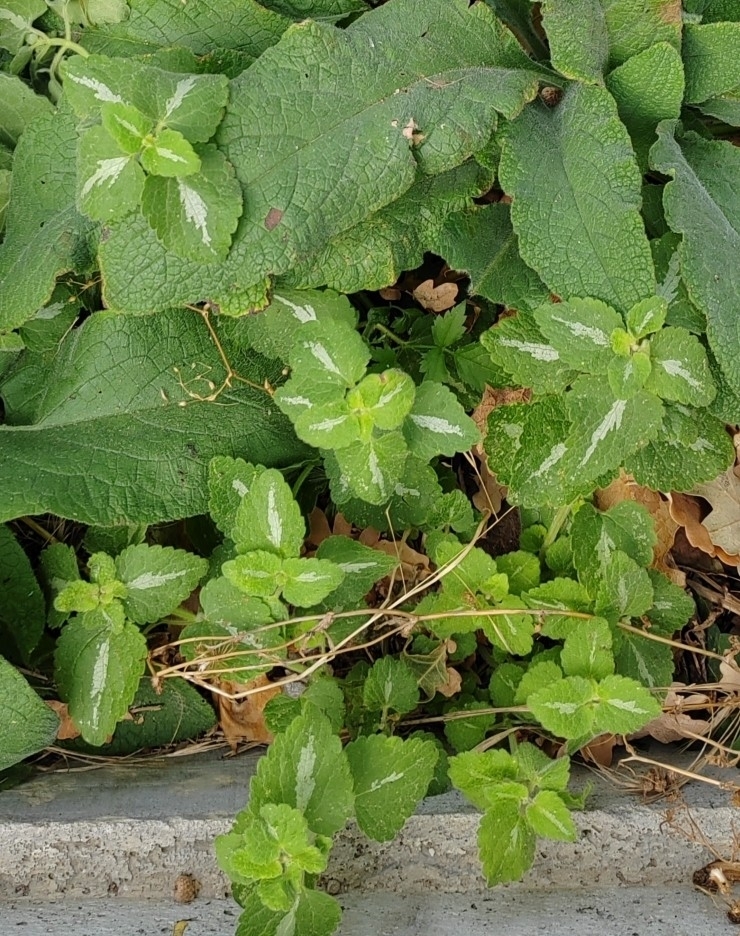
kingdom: Plantae
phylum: Tracheophyta
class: Magnoliopsida
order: Lamiales
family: Lamiaceae
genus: Lamium
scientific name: Lamium maculatum
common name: Spotted dead-nettle
